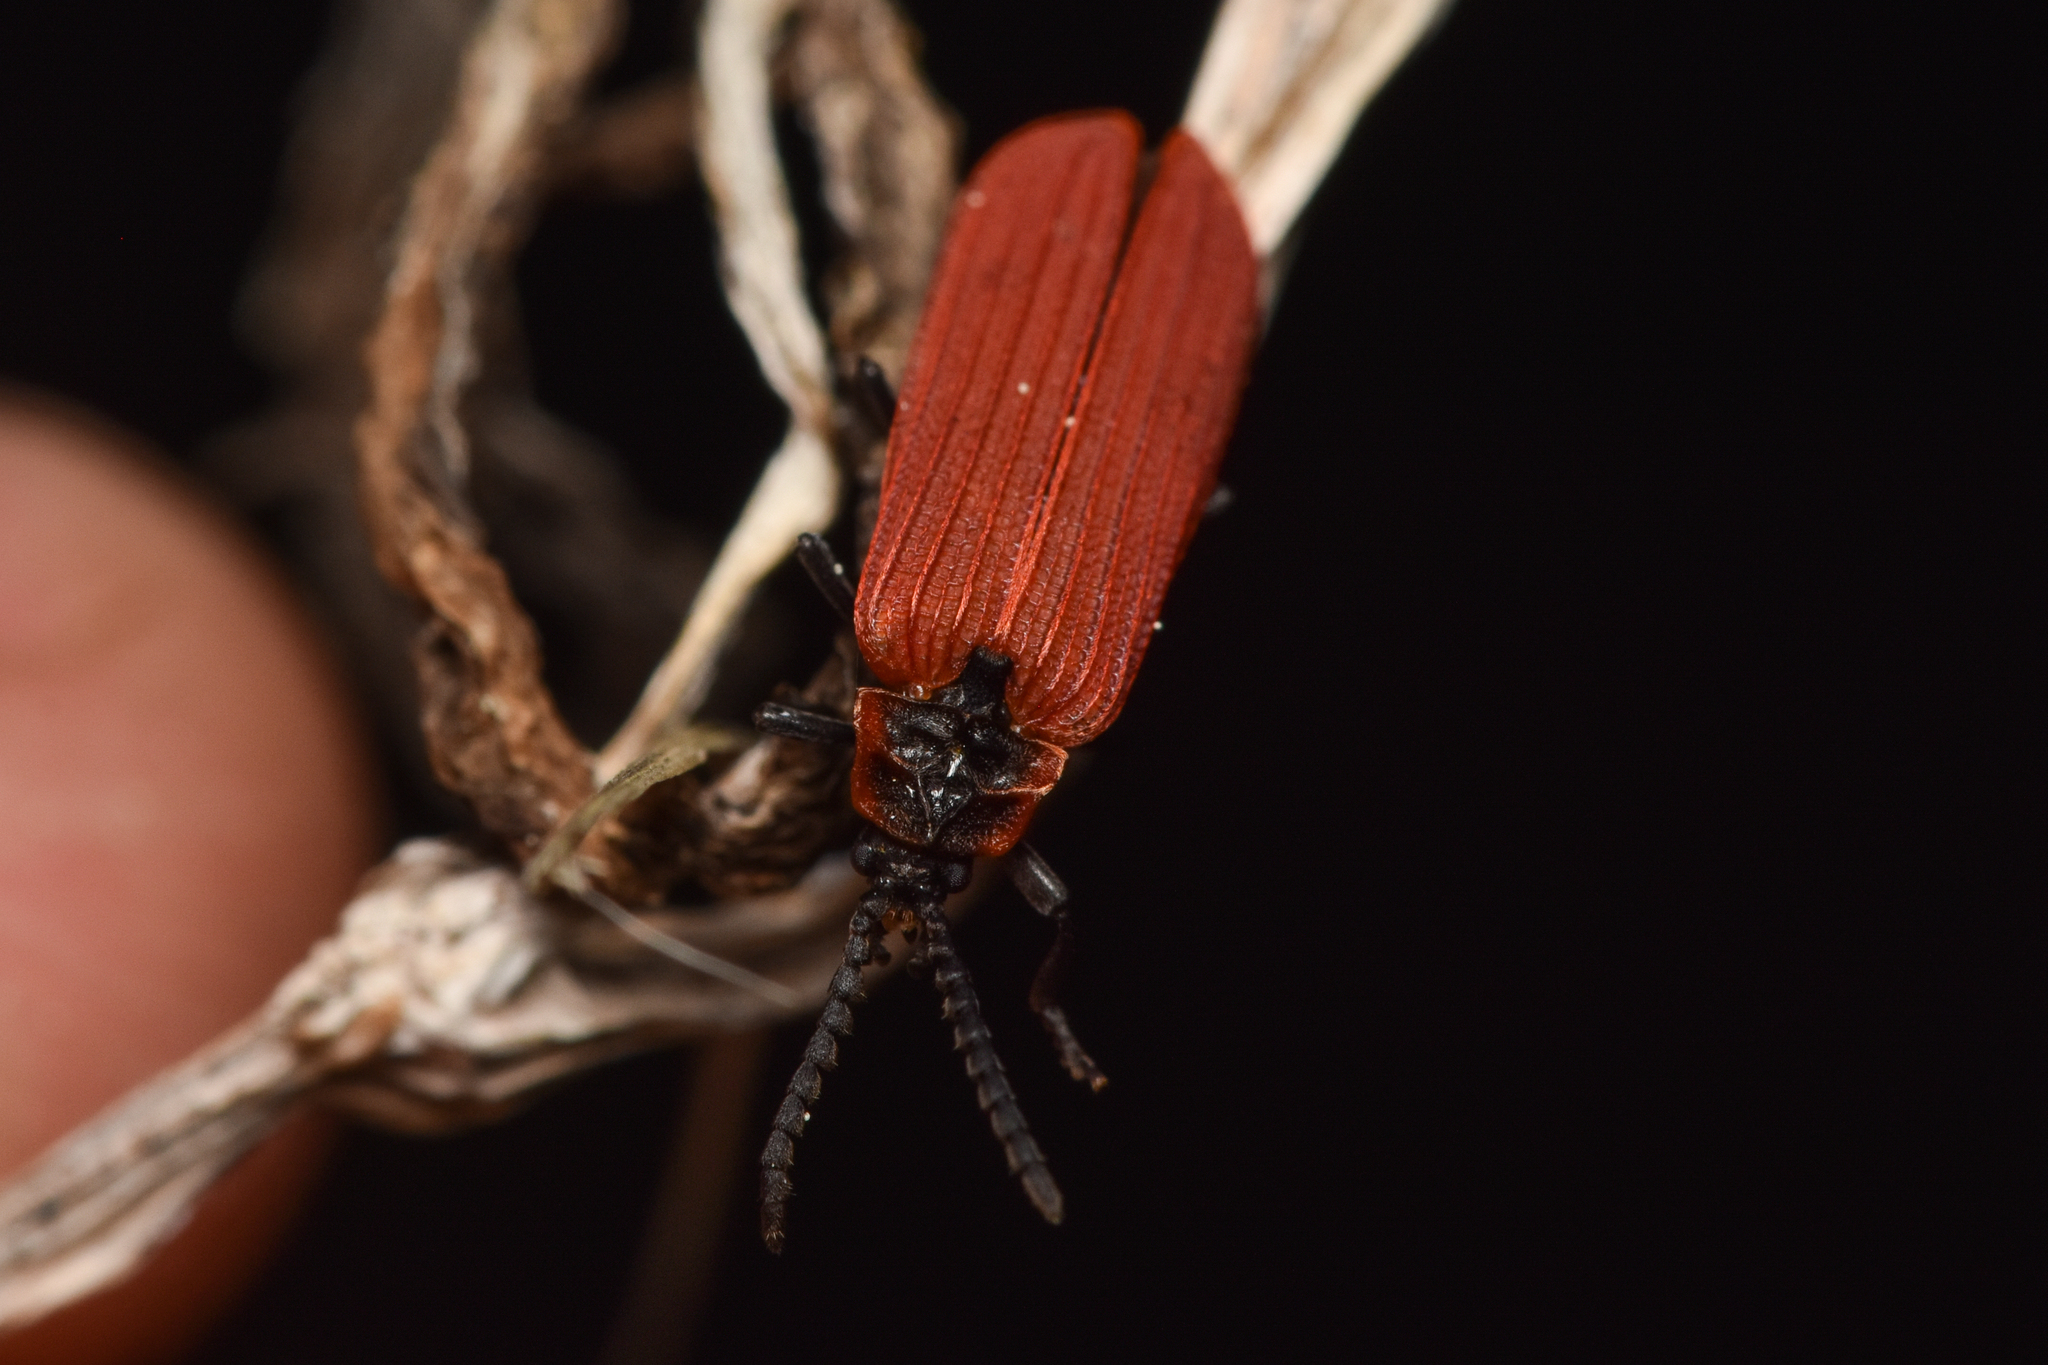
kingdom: Animalia
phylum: Arthropoda
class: Insecta
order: Coleoptera
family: Lycidae
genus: Dictyoptera
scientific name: Dictyoptera aurora
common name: Golden net-winged beetle
